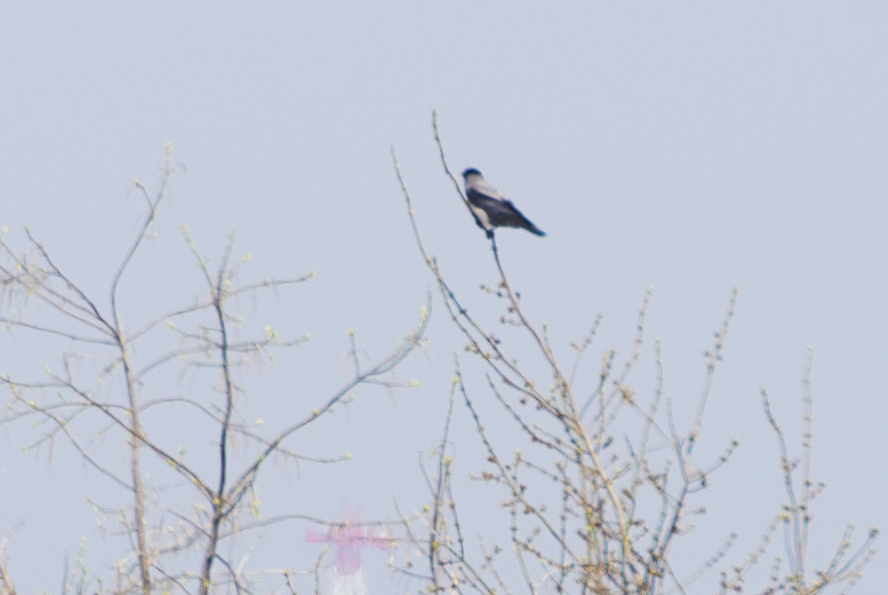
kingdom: Animalia
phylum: Chordata
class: Aves
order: Passeriformes
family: Corvidae
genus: Corvus
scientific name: Corvus cornix
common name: Hooded crow
